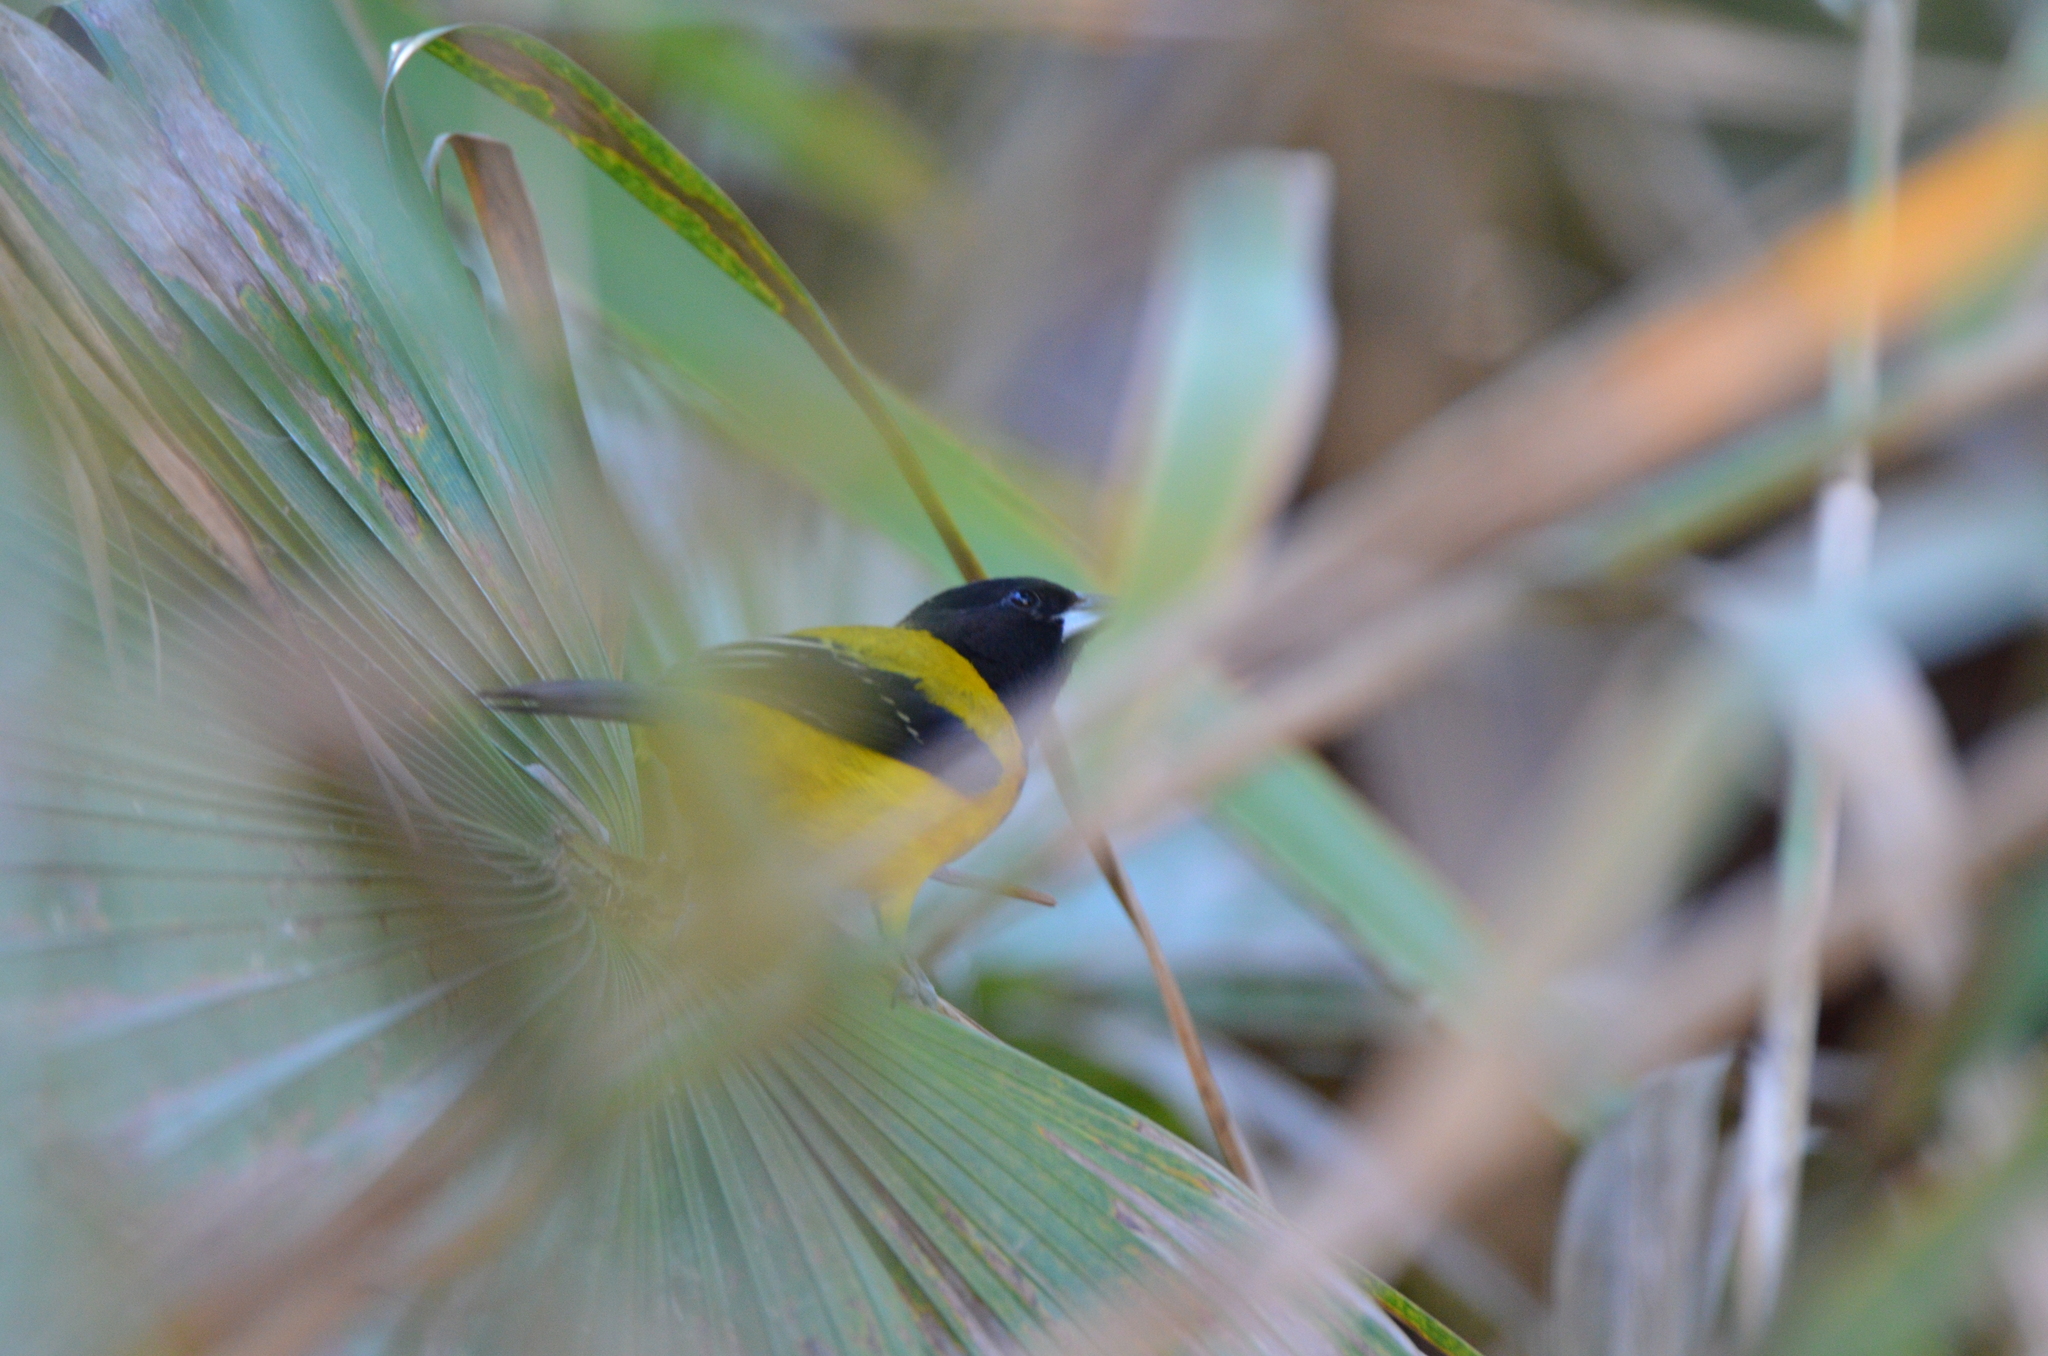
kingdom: Animalia
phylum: Chordata
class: Aves
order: Passeriformes
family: Icteridae
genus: Icterus
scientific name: Icterus graduacauda
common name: Audubon's oriole
